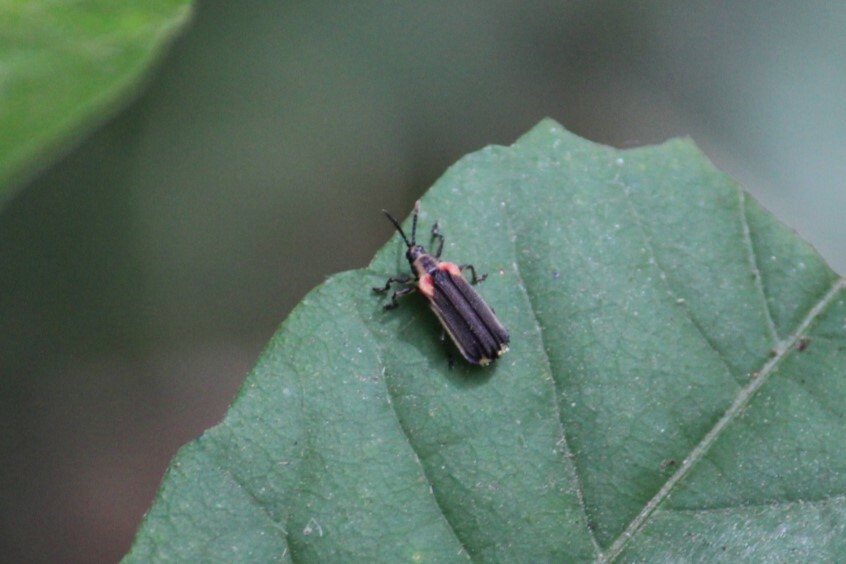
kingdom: Animalia
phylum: Arthropoda
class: Insecta
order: Coleoptera
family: Chrysomelidae
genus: Heterispa
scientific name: Heterispa vinula
